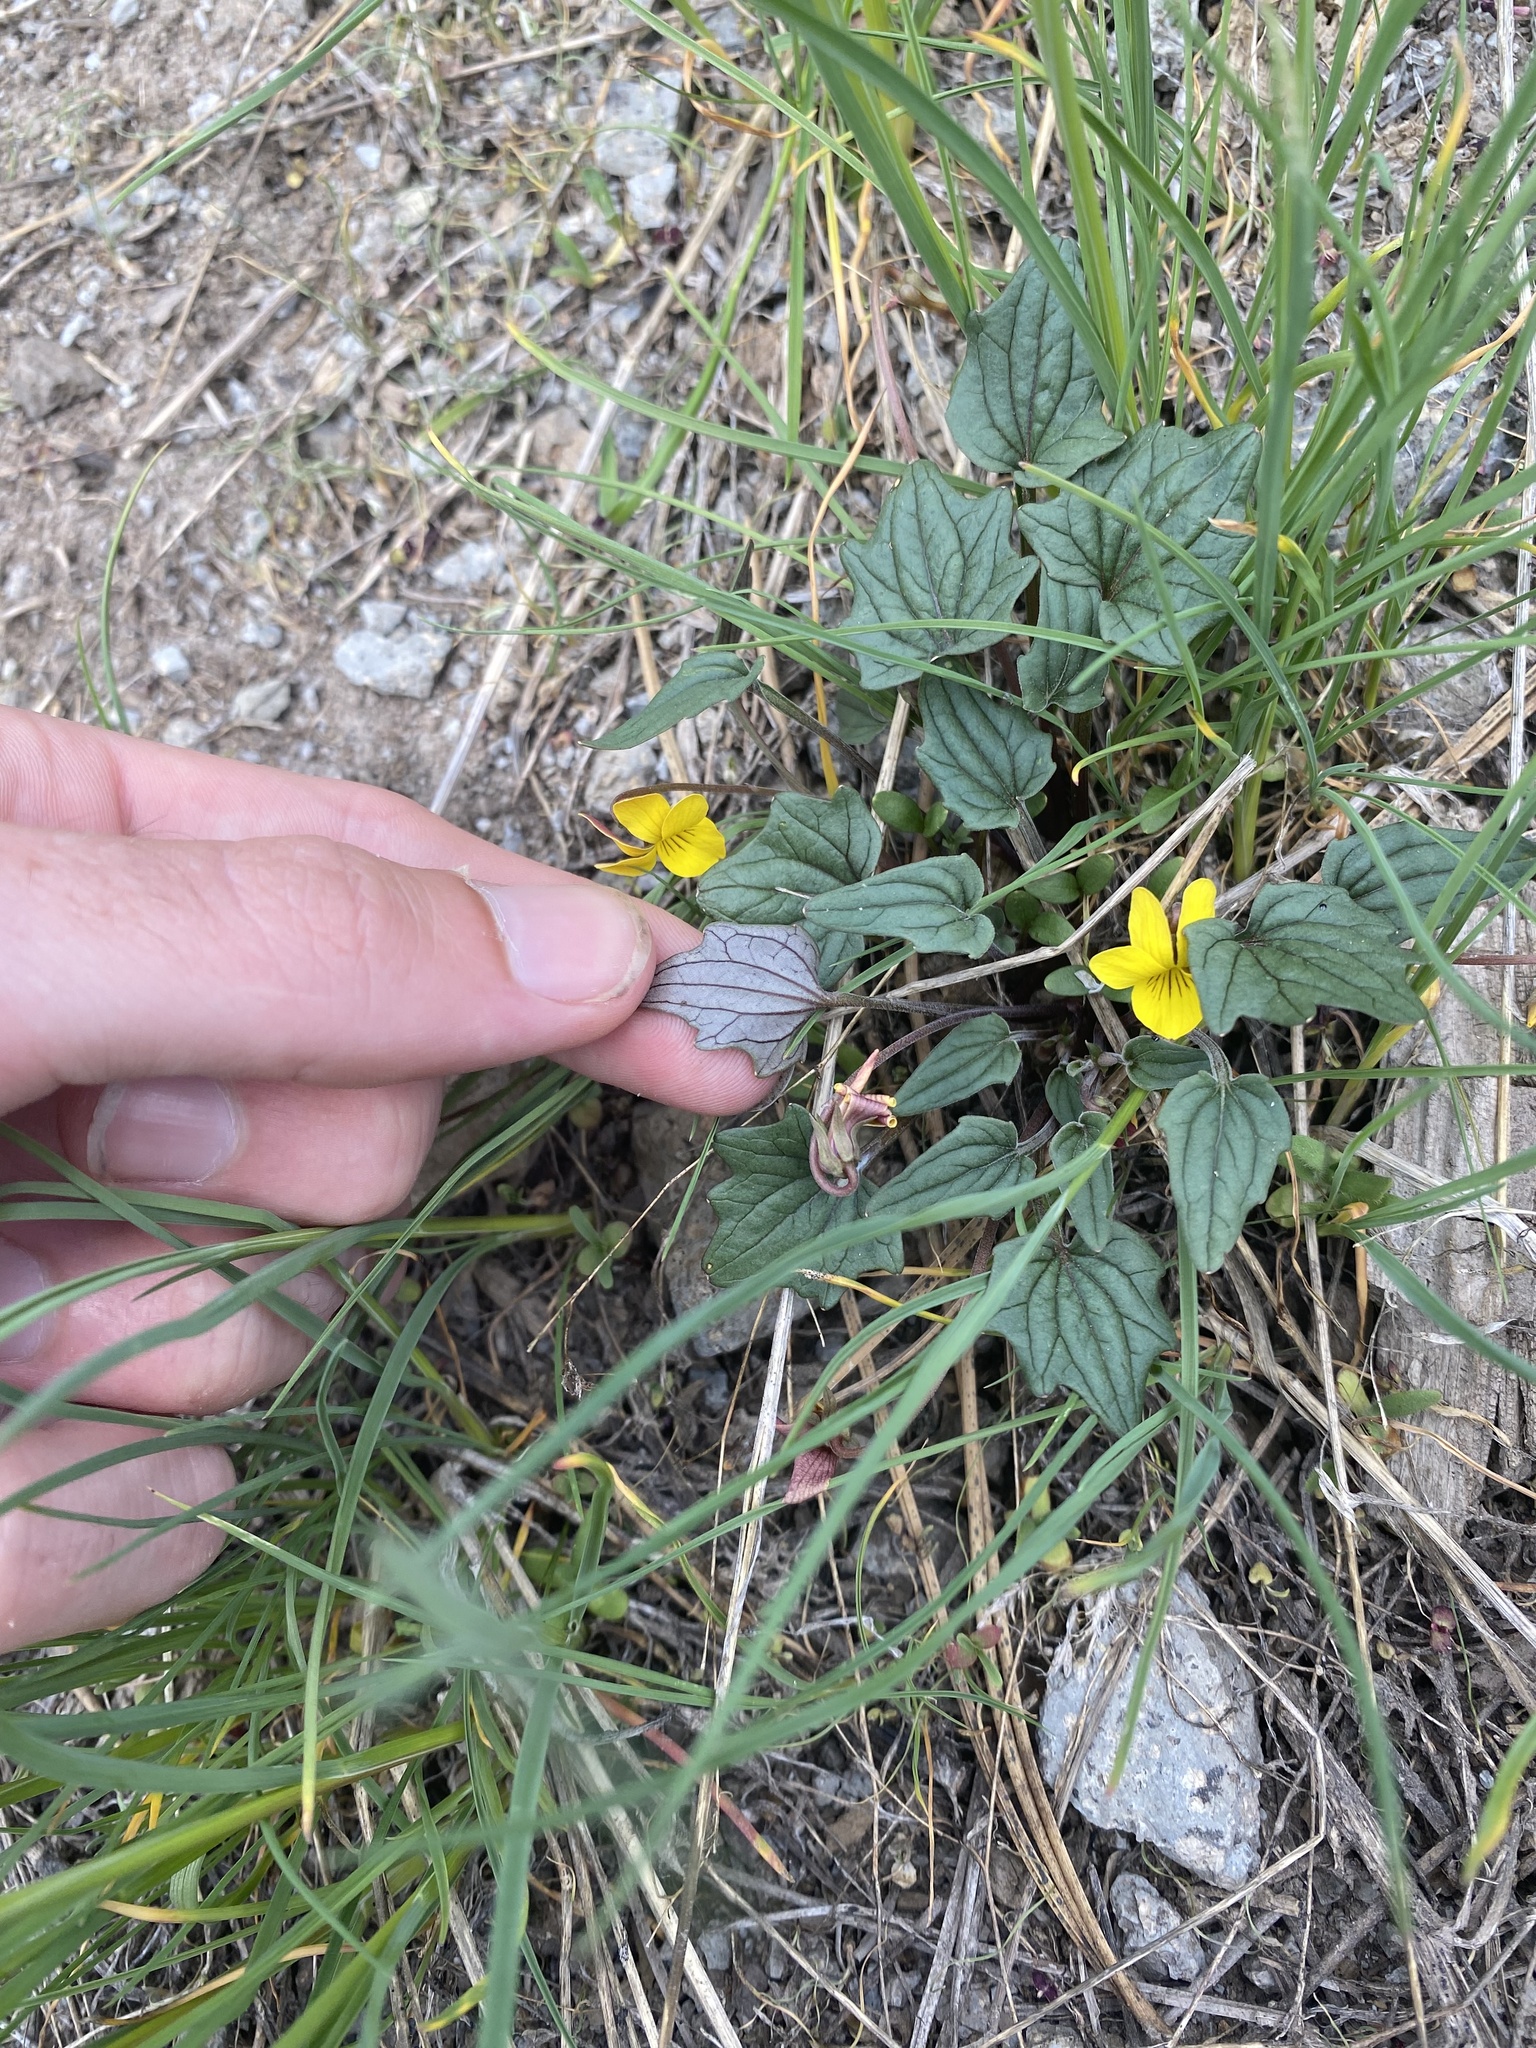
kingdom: Plantae
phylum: Tracheophyta
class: Magnoliopsida
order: Malpighiales
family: Violaceae
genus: Viola
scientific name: Viola purpurea
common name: Pine violet
